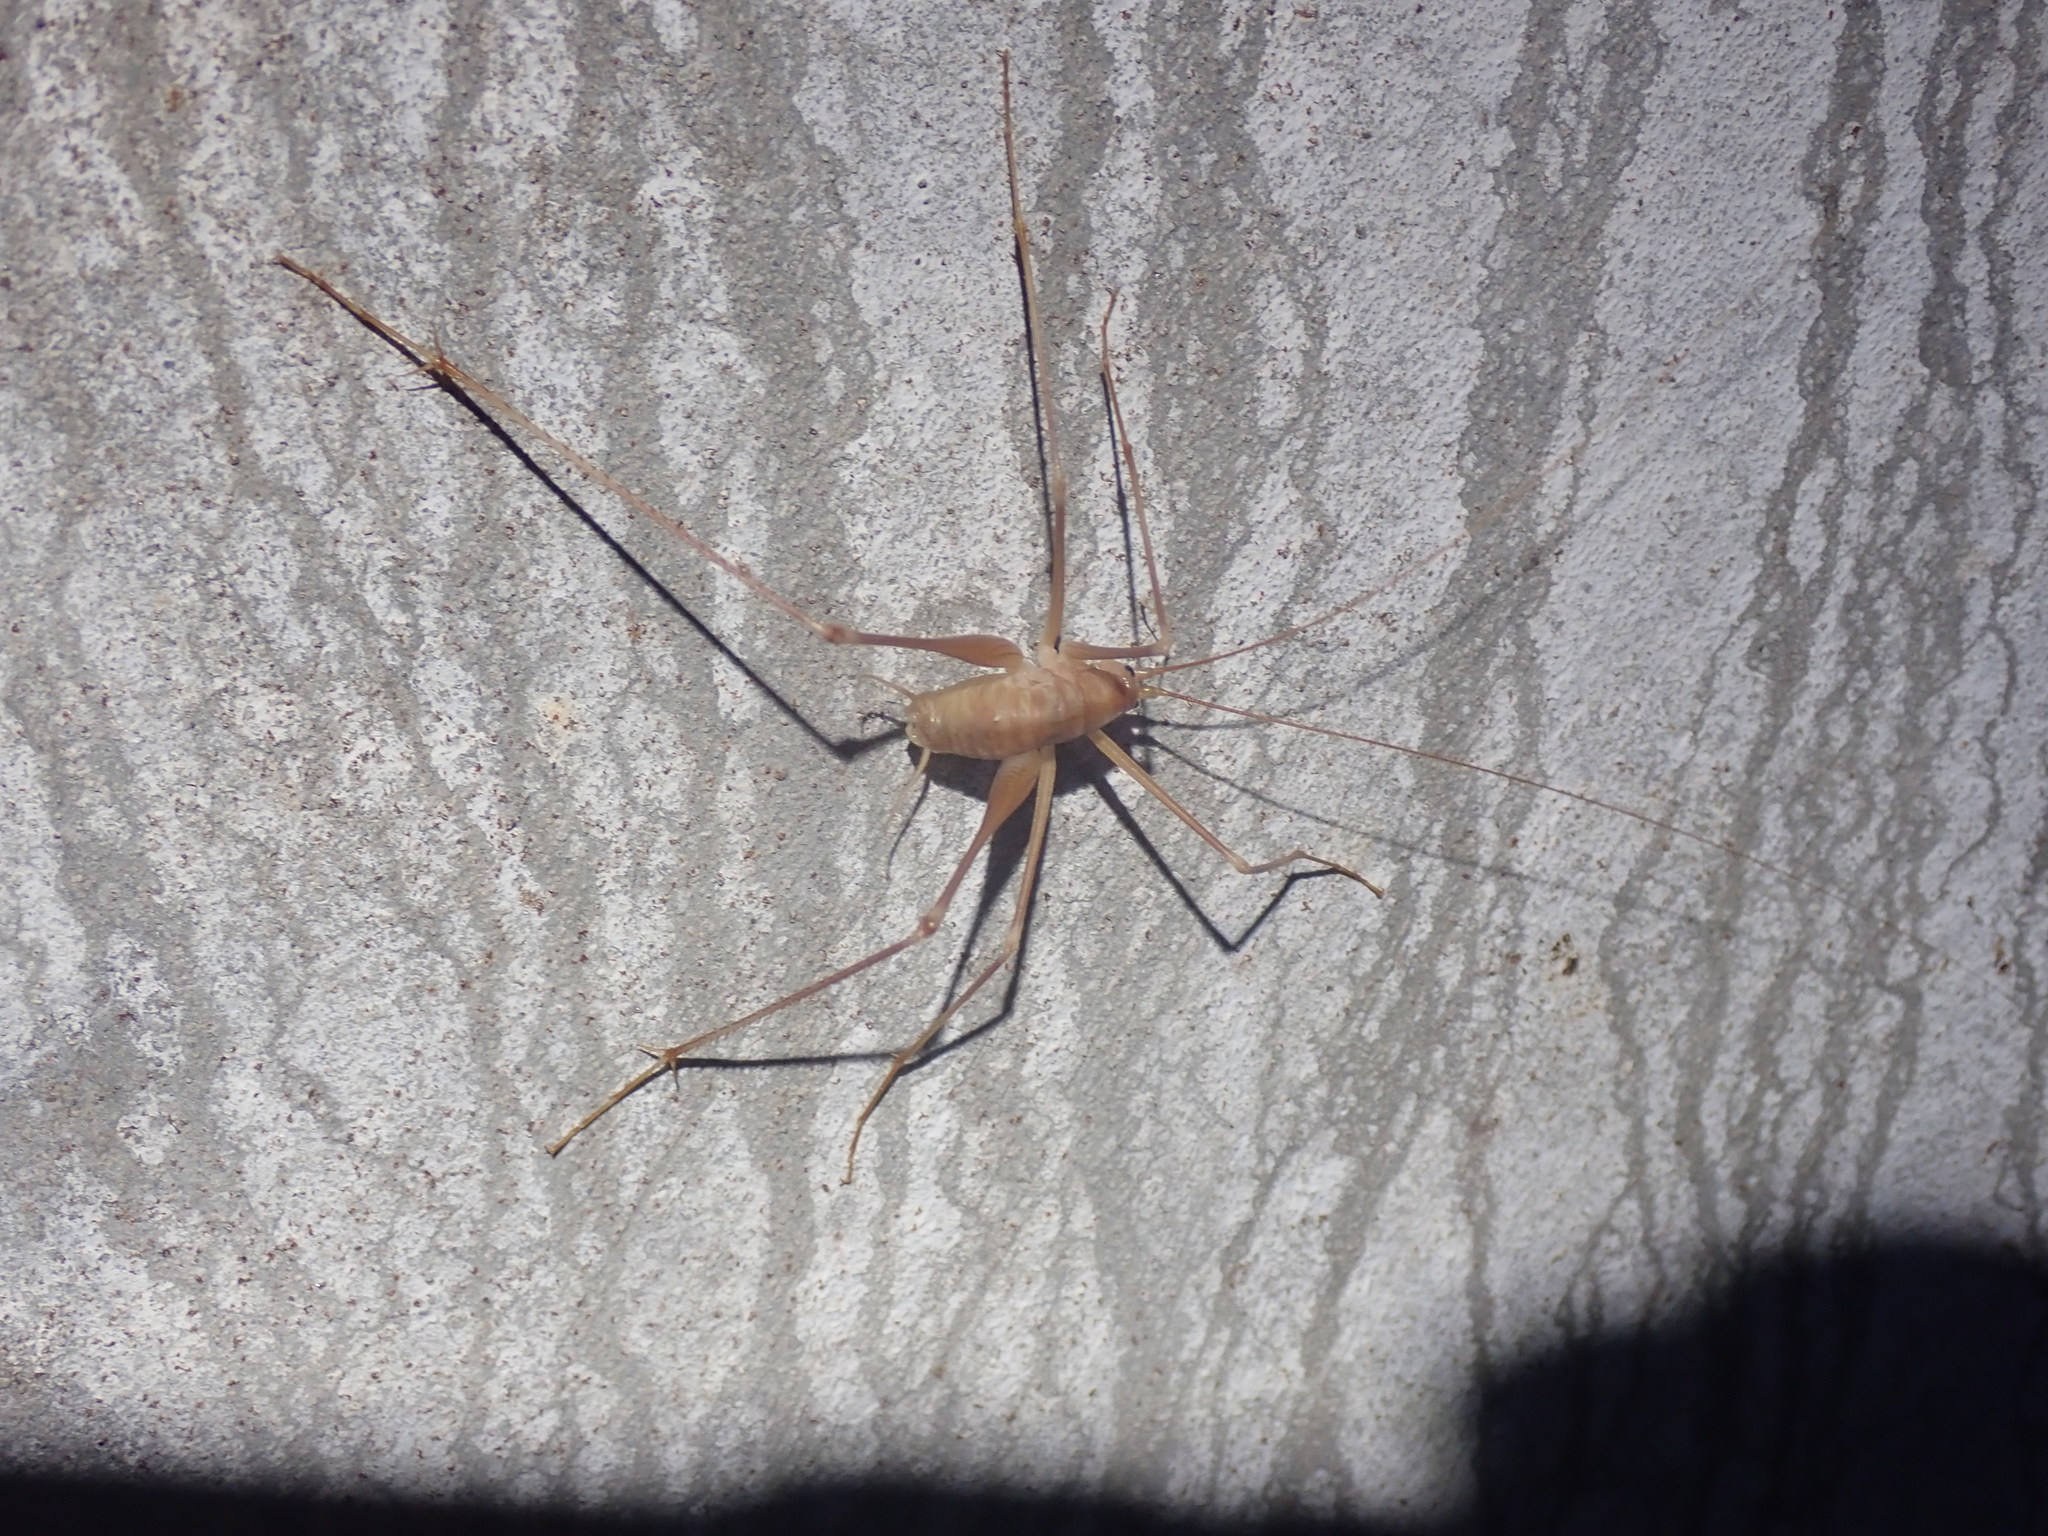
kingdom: Animalia
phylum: Arthropoda
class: Insecta
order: Orthoptera
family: Rhaphidophoridae
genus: Dolichopoda
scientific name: Dolichopoda araneiformis
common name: Spidery cave-cricket
